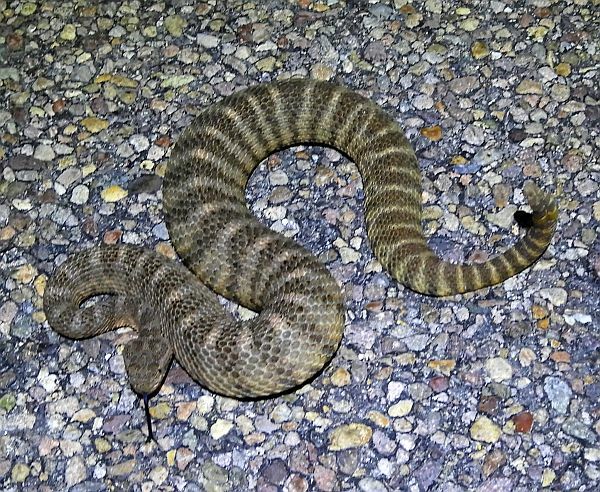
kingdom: Animalia
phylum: Chordata
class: Squamata
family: Viperidae
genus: Crotalus
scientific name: Crotalus tigris
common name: Tiger rattlesnake
